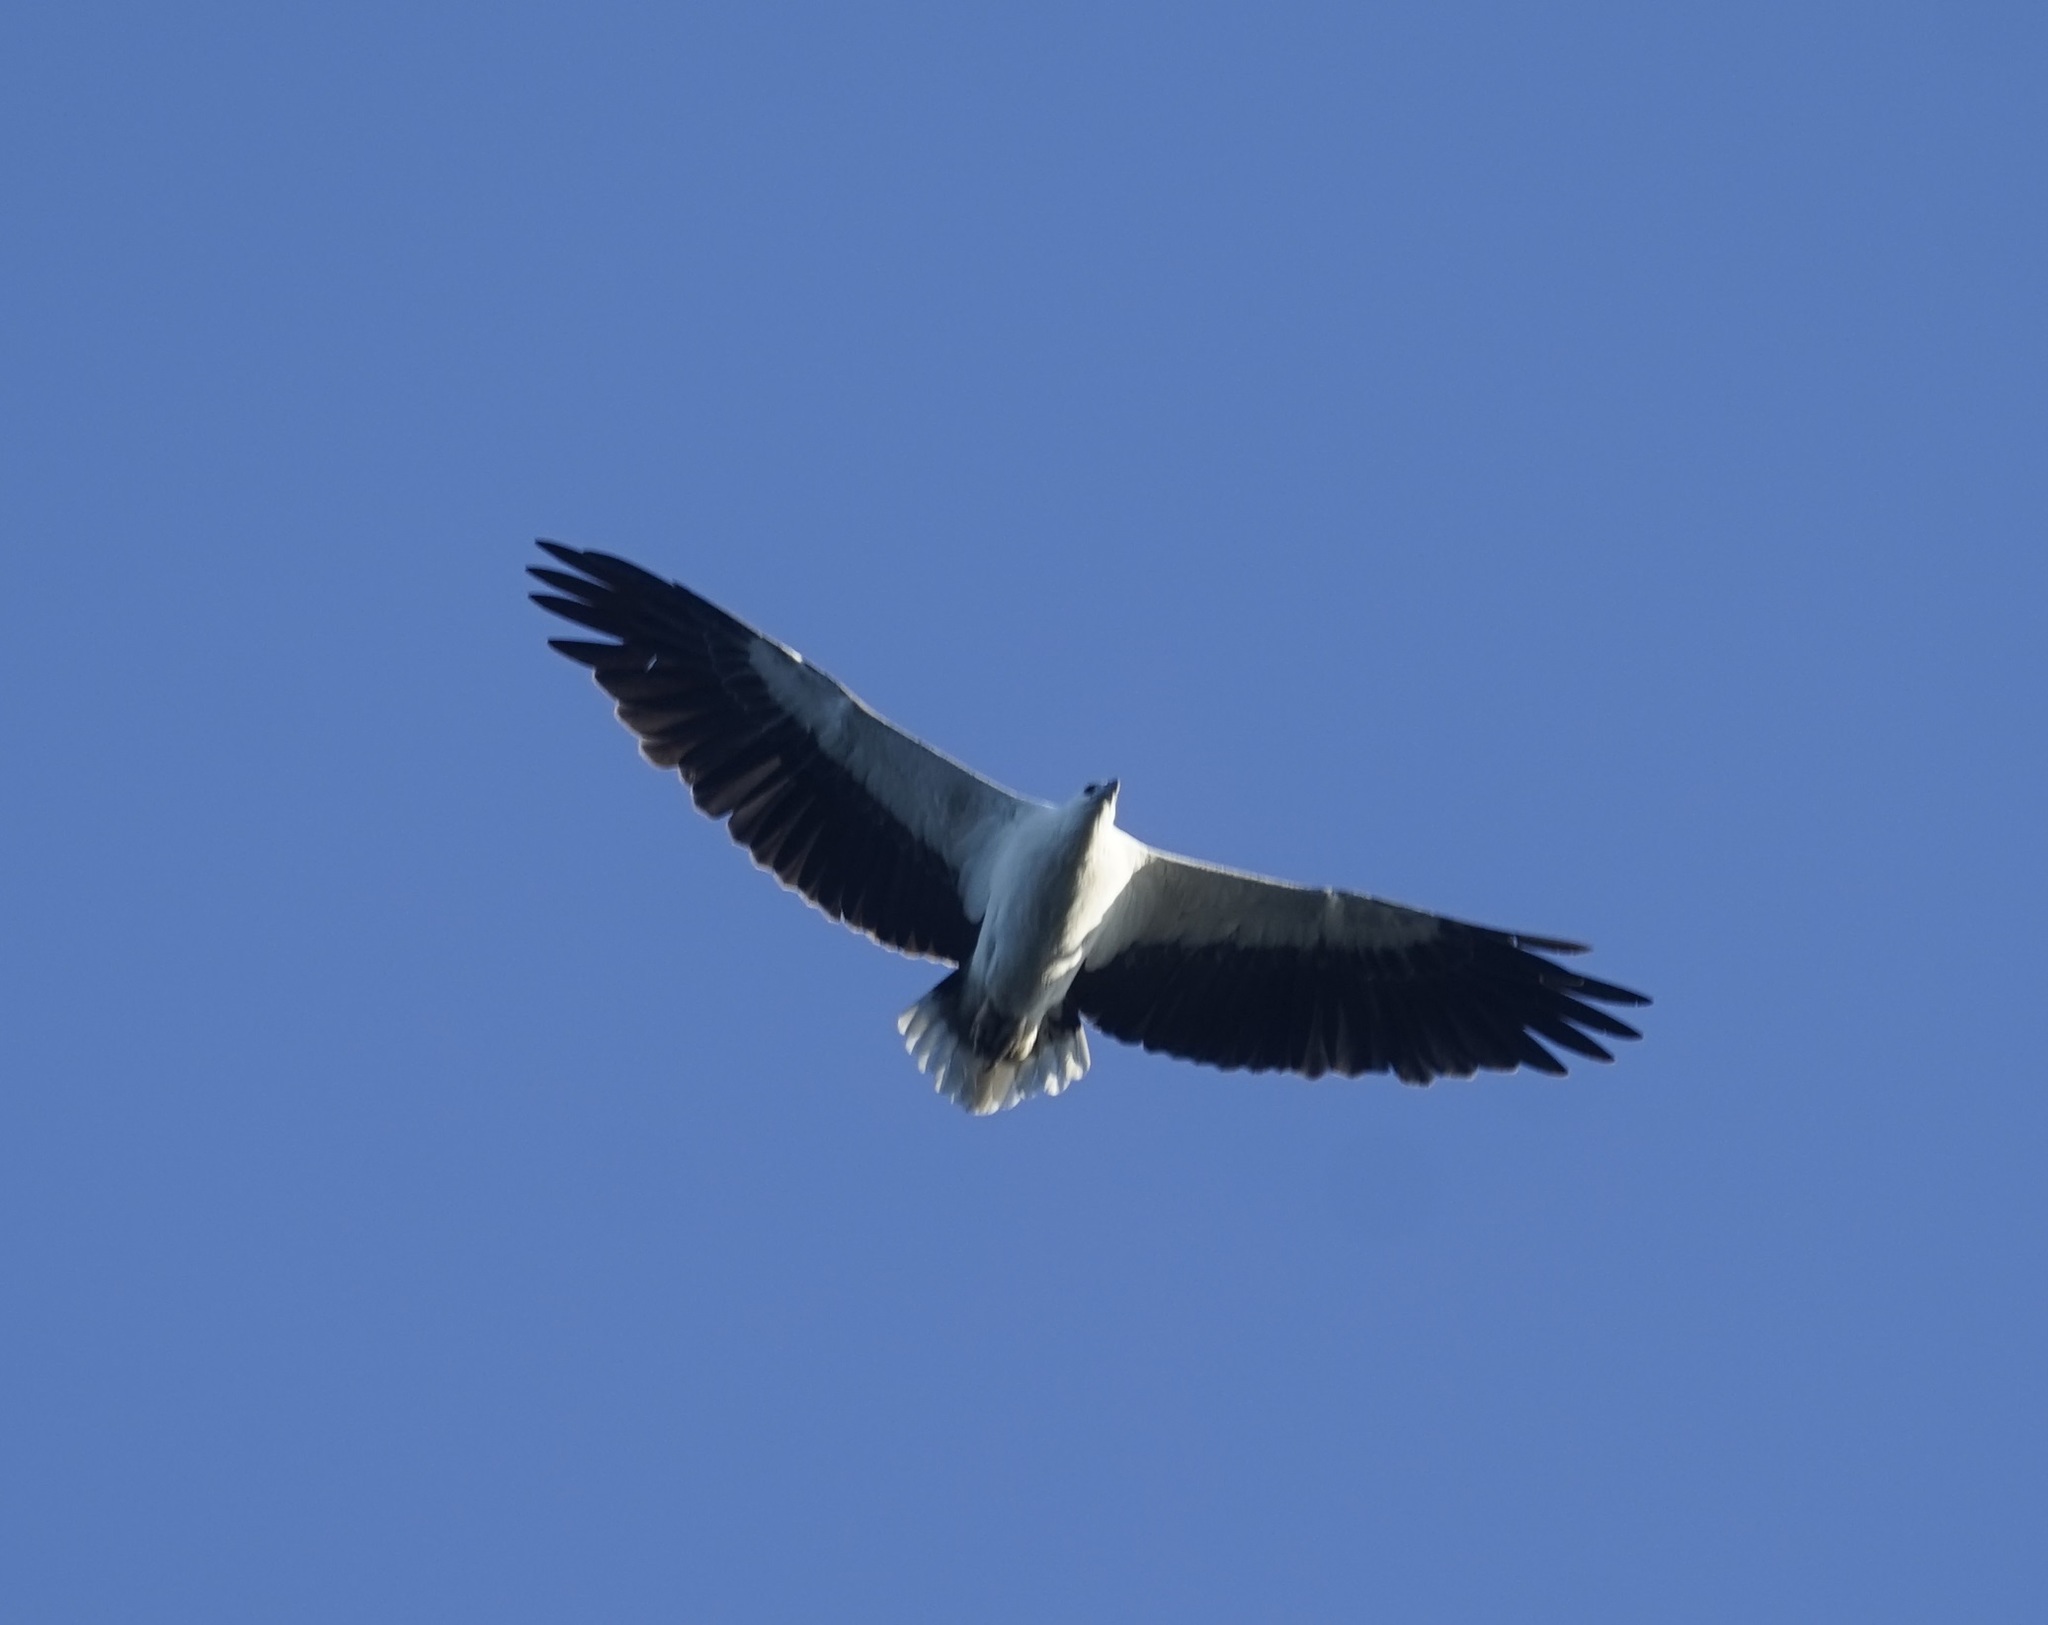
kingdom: Animalia
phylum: Chordata
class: Aves
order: Accipitriformes
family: Accipitridae
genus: Haliaeetus
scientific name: Haliaeetus leucogaster
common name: White-bellied sea eagle
